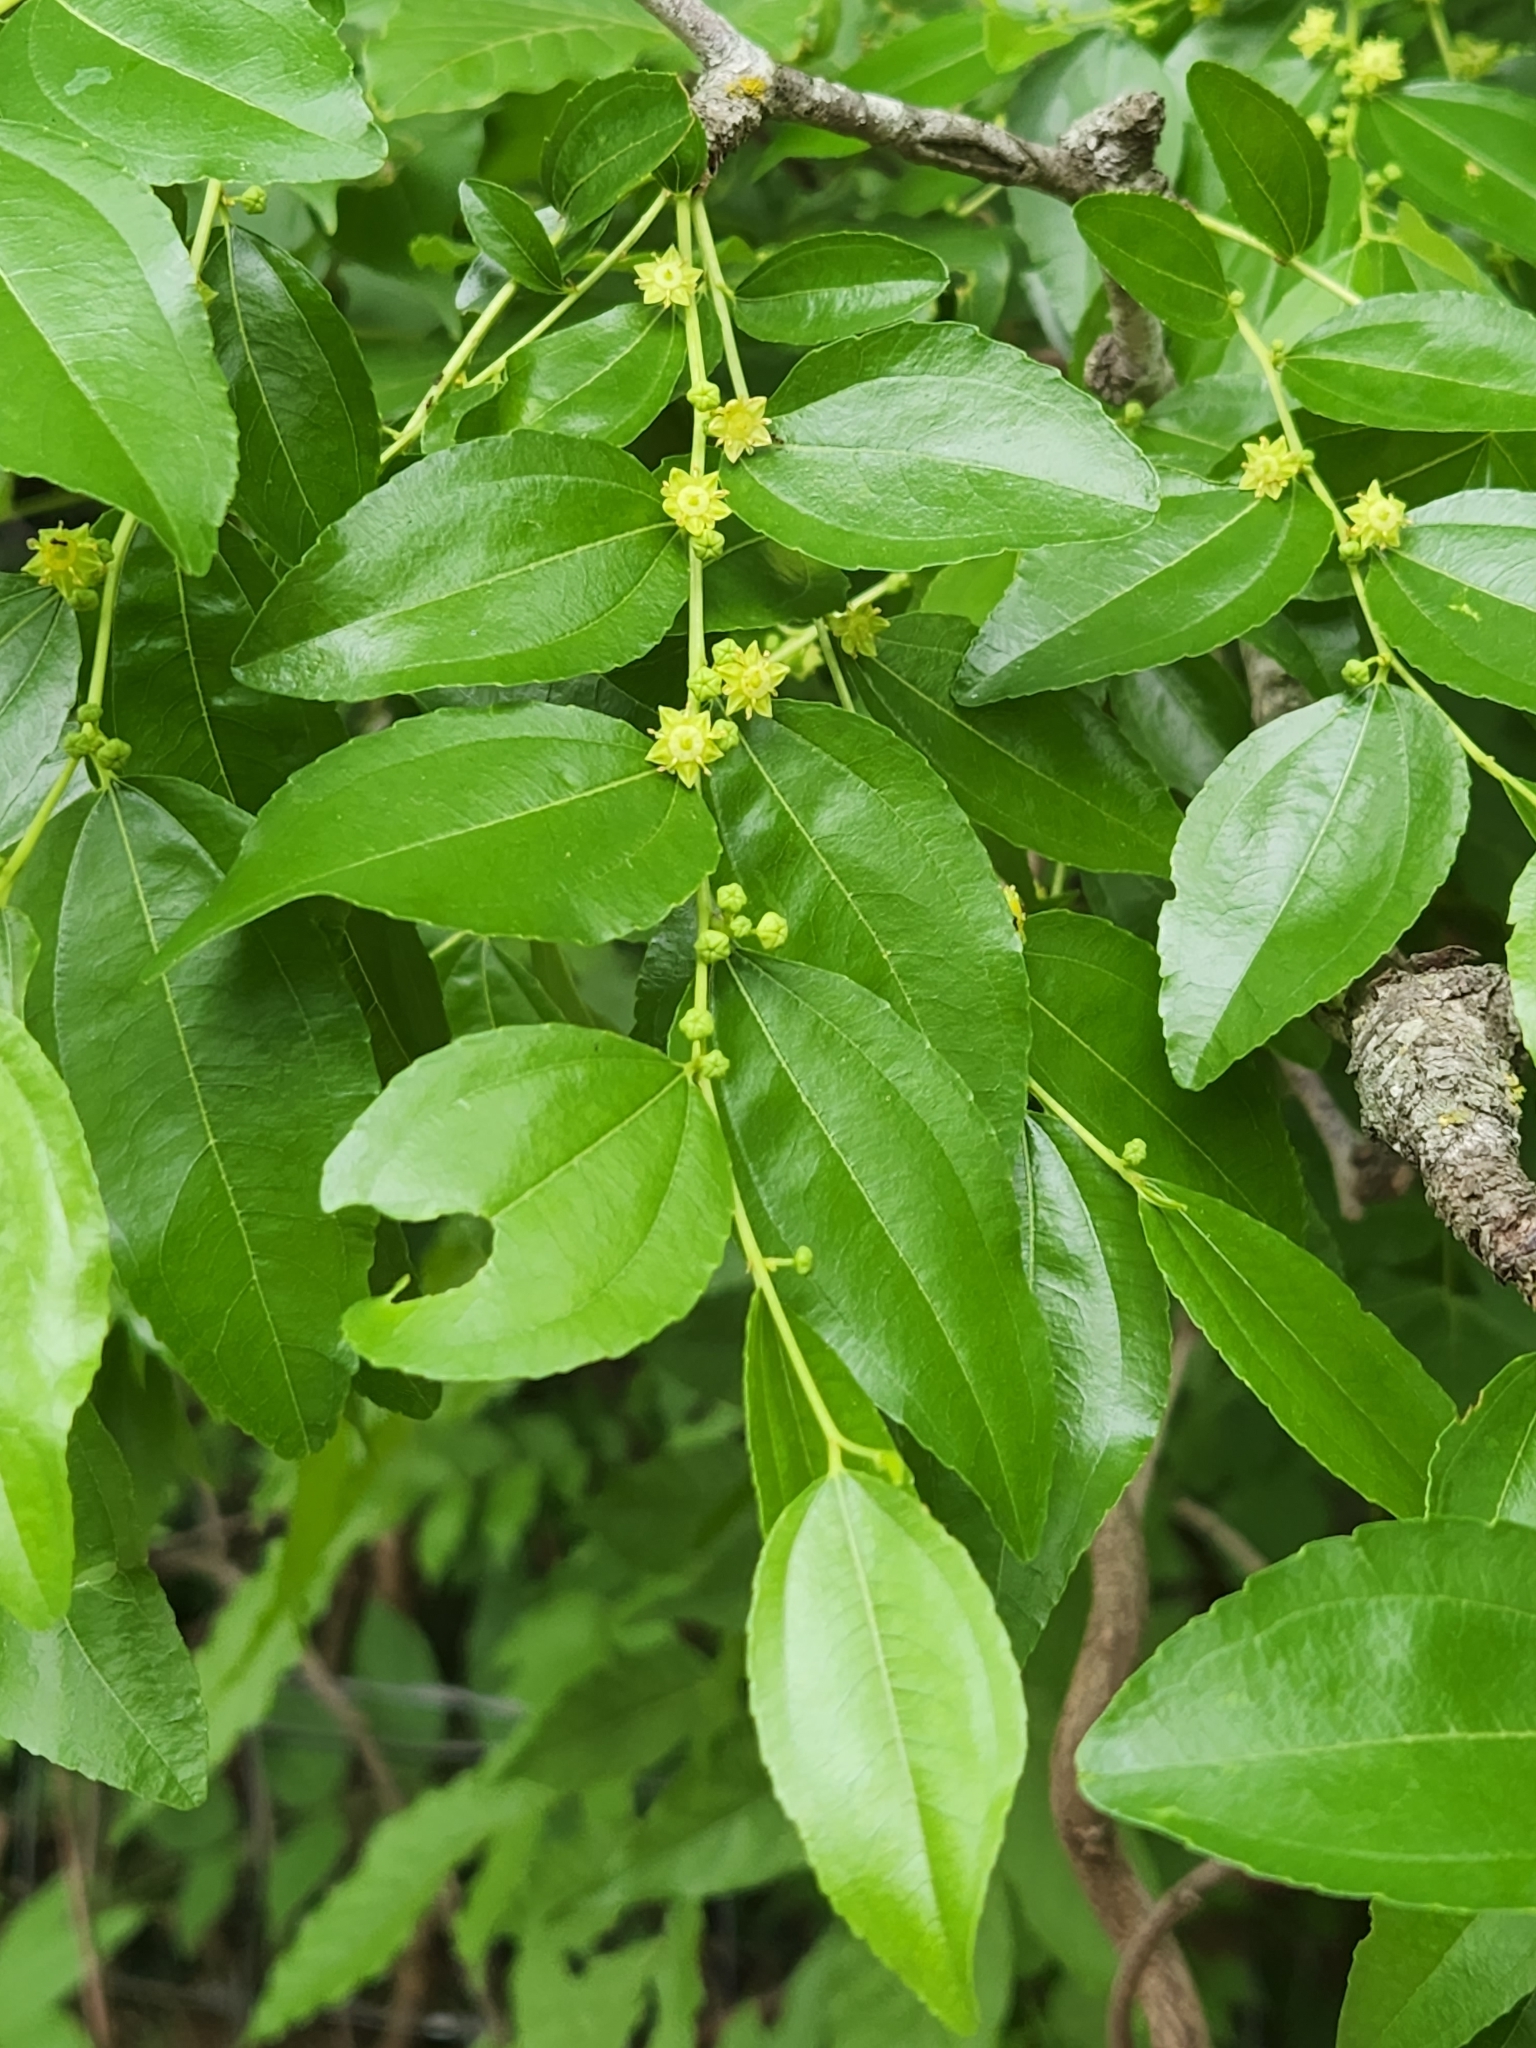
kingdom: Plantae
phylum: Tracheophyta
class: Magnoliopsida
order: Rosales
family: Rhamnaceae
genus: Ziziphus
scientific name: Ziziphus jujuba
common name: Jujube red date
